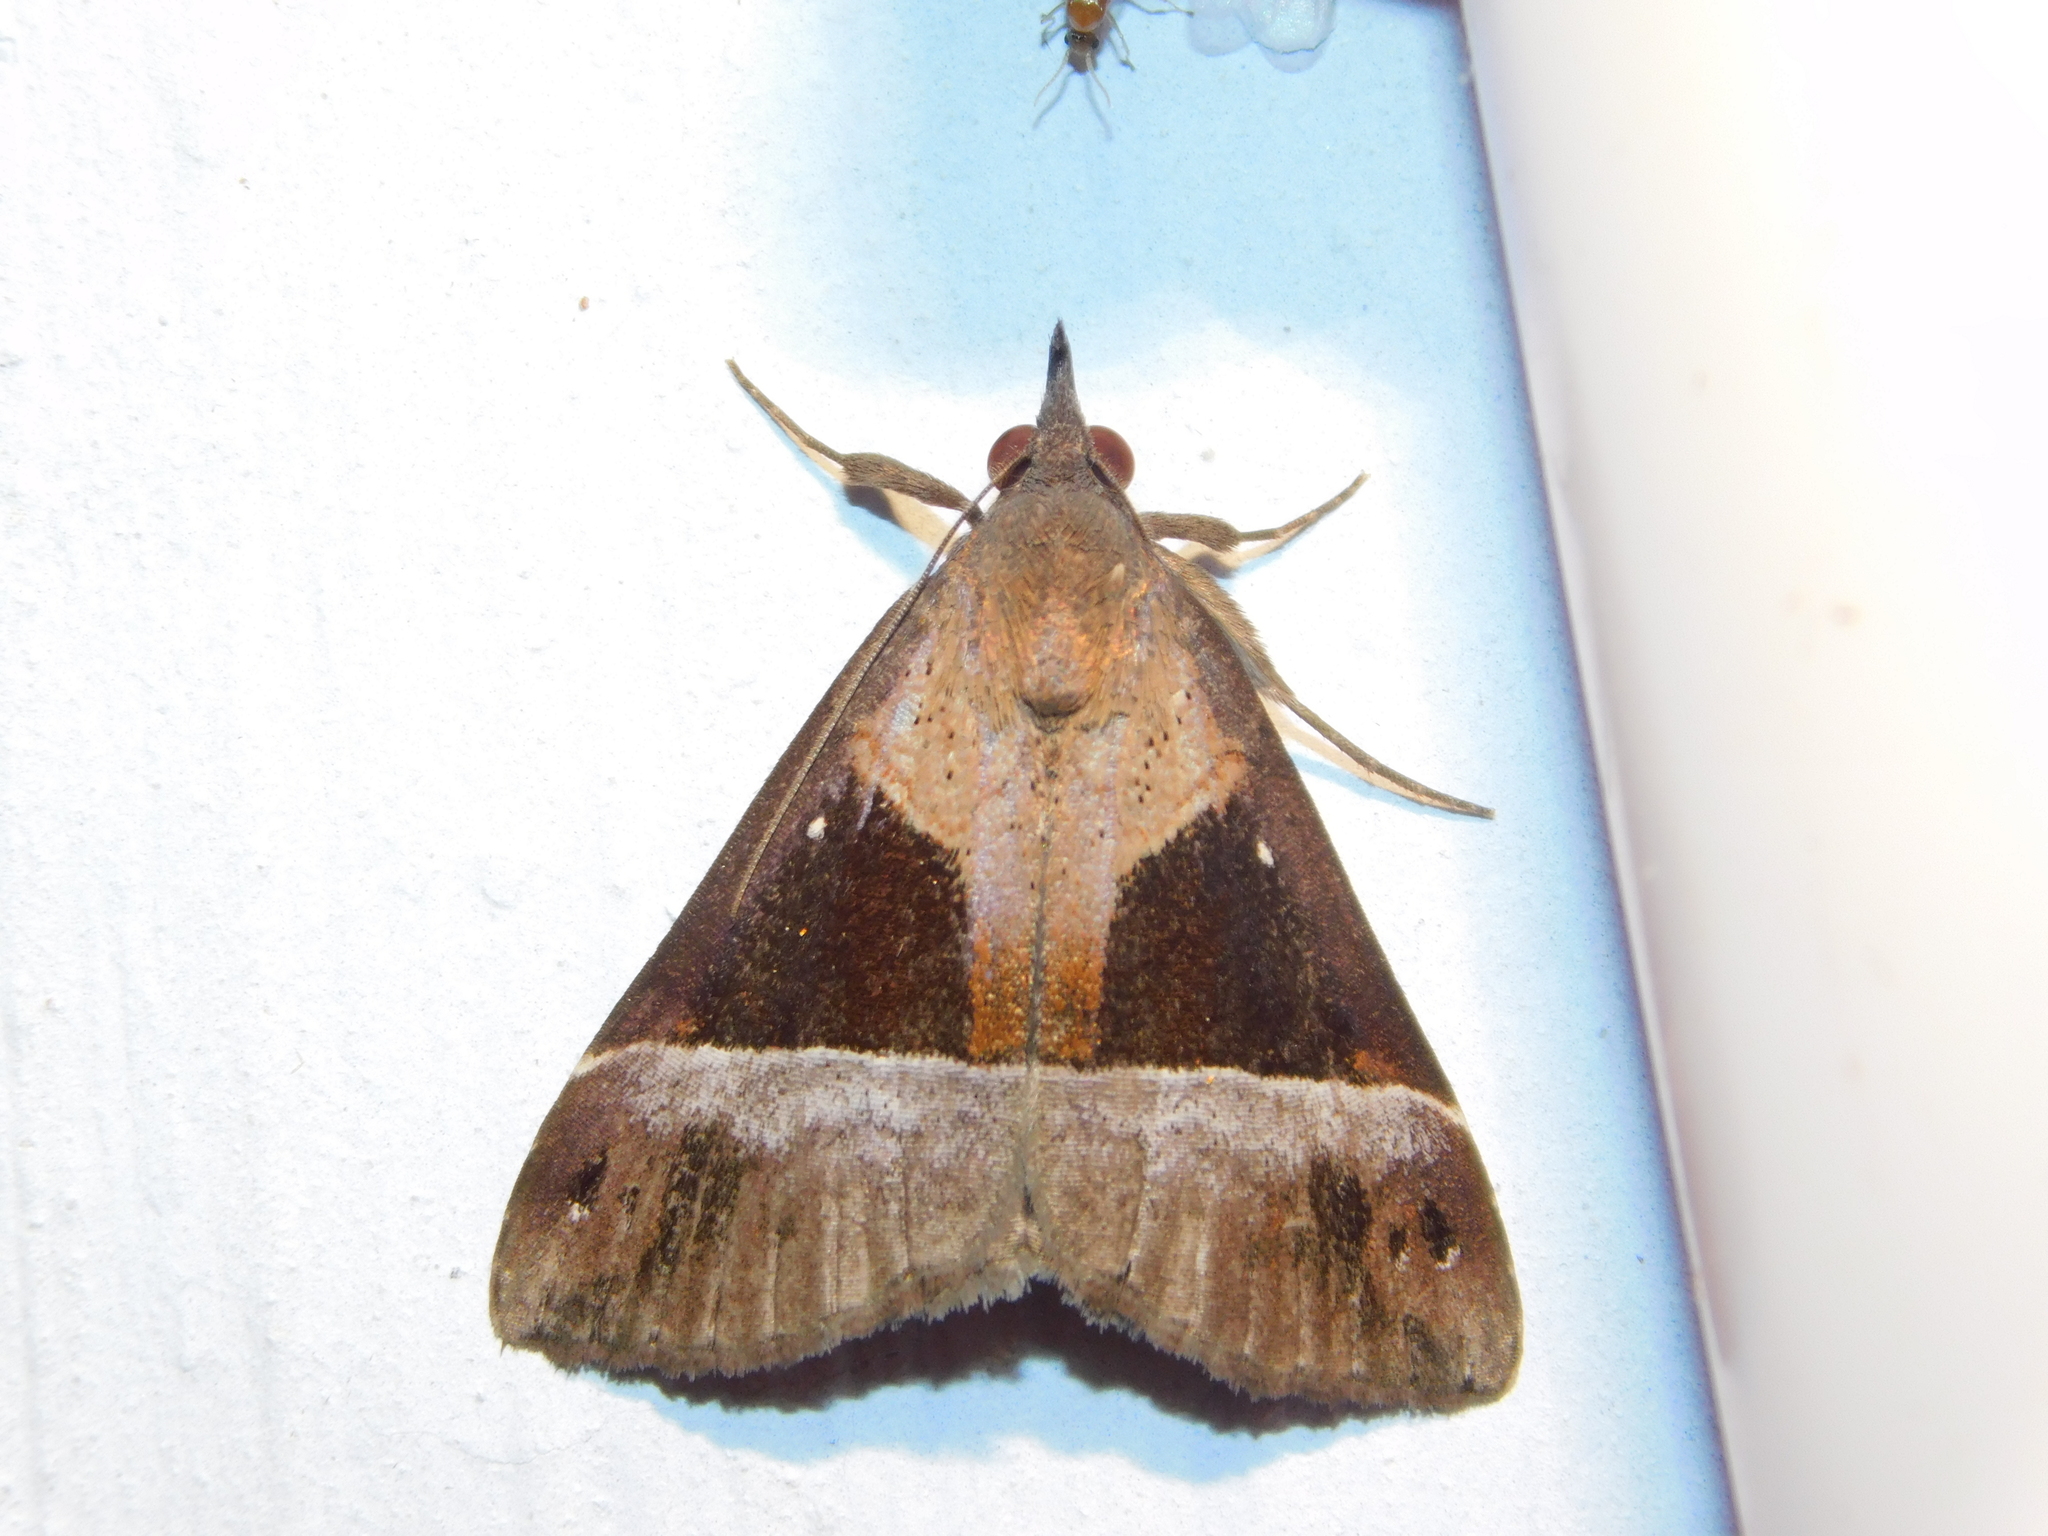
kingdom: Animalia
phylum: Arthropoda
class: Insecta
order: Lepidoptera
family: Erebidae
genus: Hypena
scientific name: Hypena
